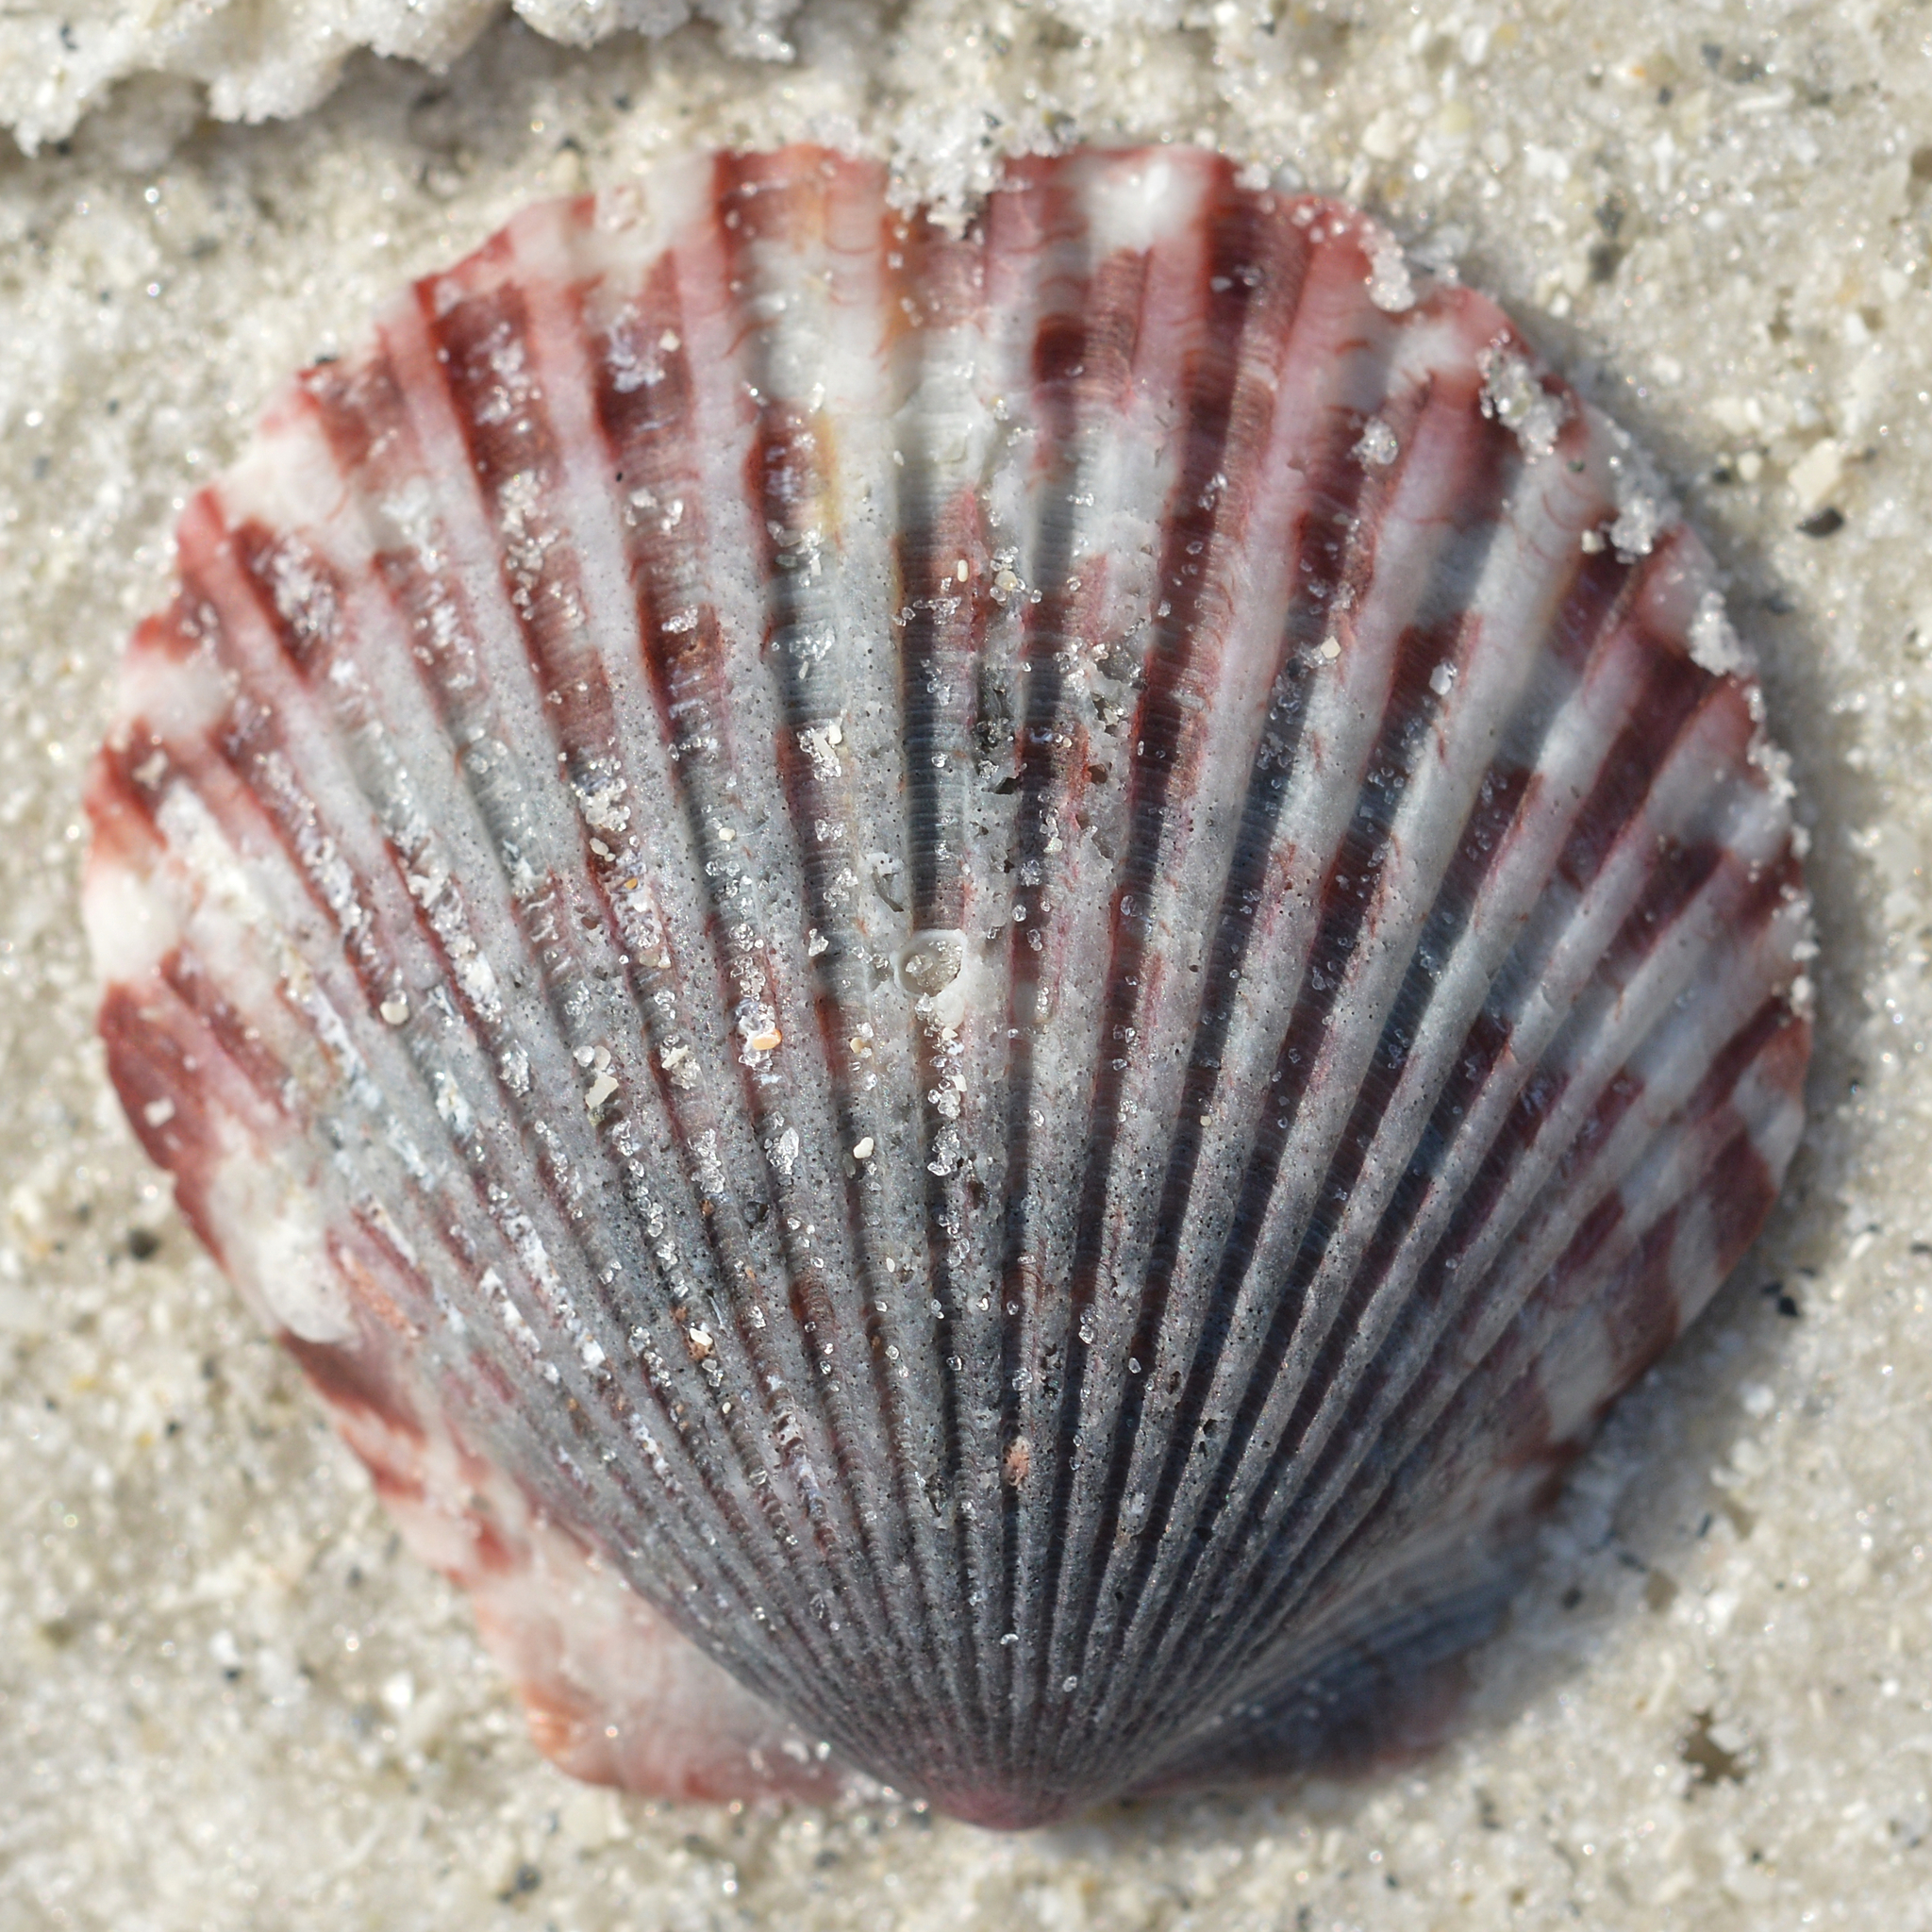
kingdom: Animalia
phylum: Mollusca
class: Bivalvia
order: Pectinida
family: Pectinidae
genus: Argopecten
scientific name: Argopecten gibbus
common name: Atlantic calico scallop
